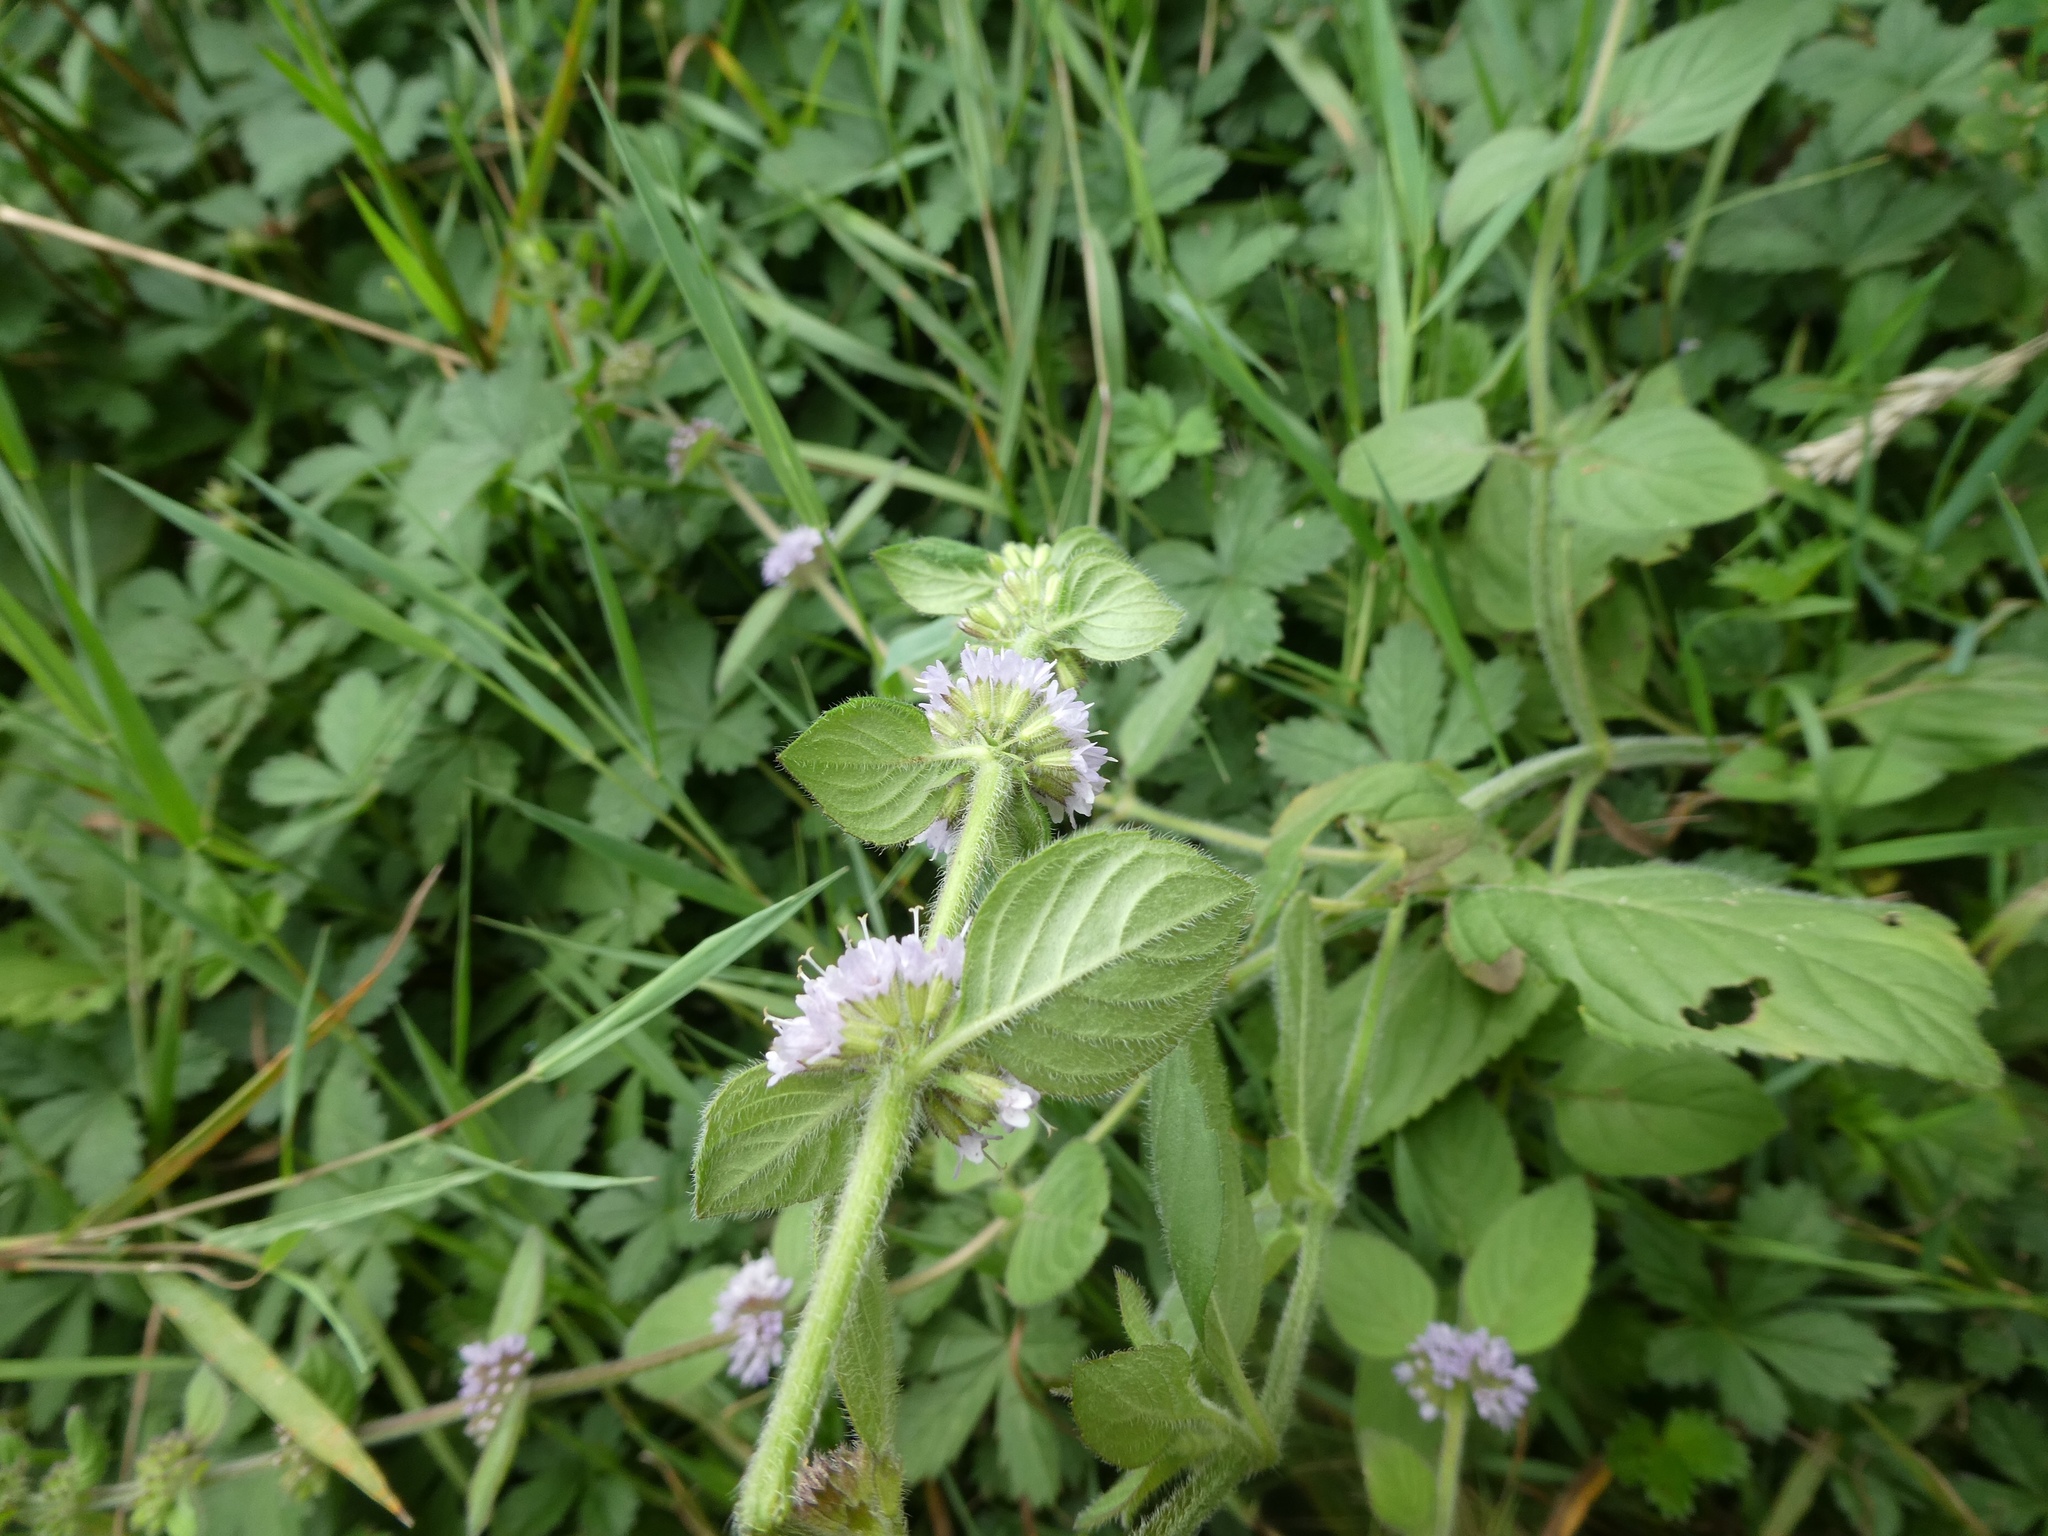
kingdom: Plantae
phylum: Tracheophyta
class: Magnoliopsida
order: Lamiales
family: Lamiaceae
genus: Mentha
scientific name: Mentha arvensis
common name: Corn mint
